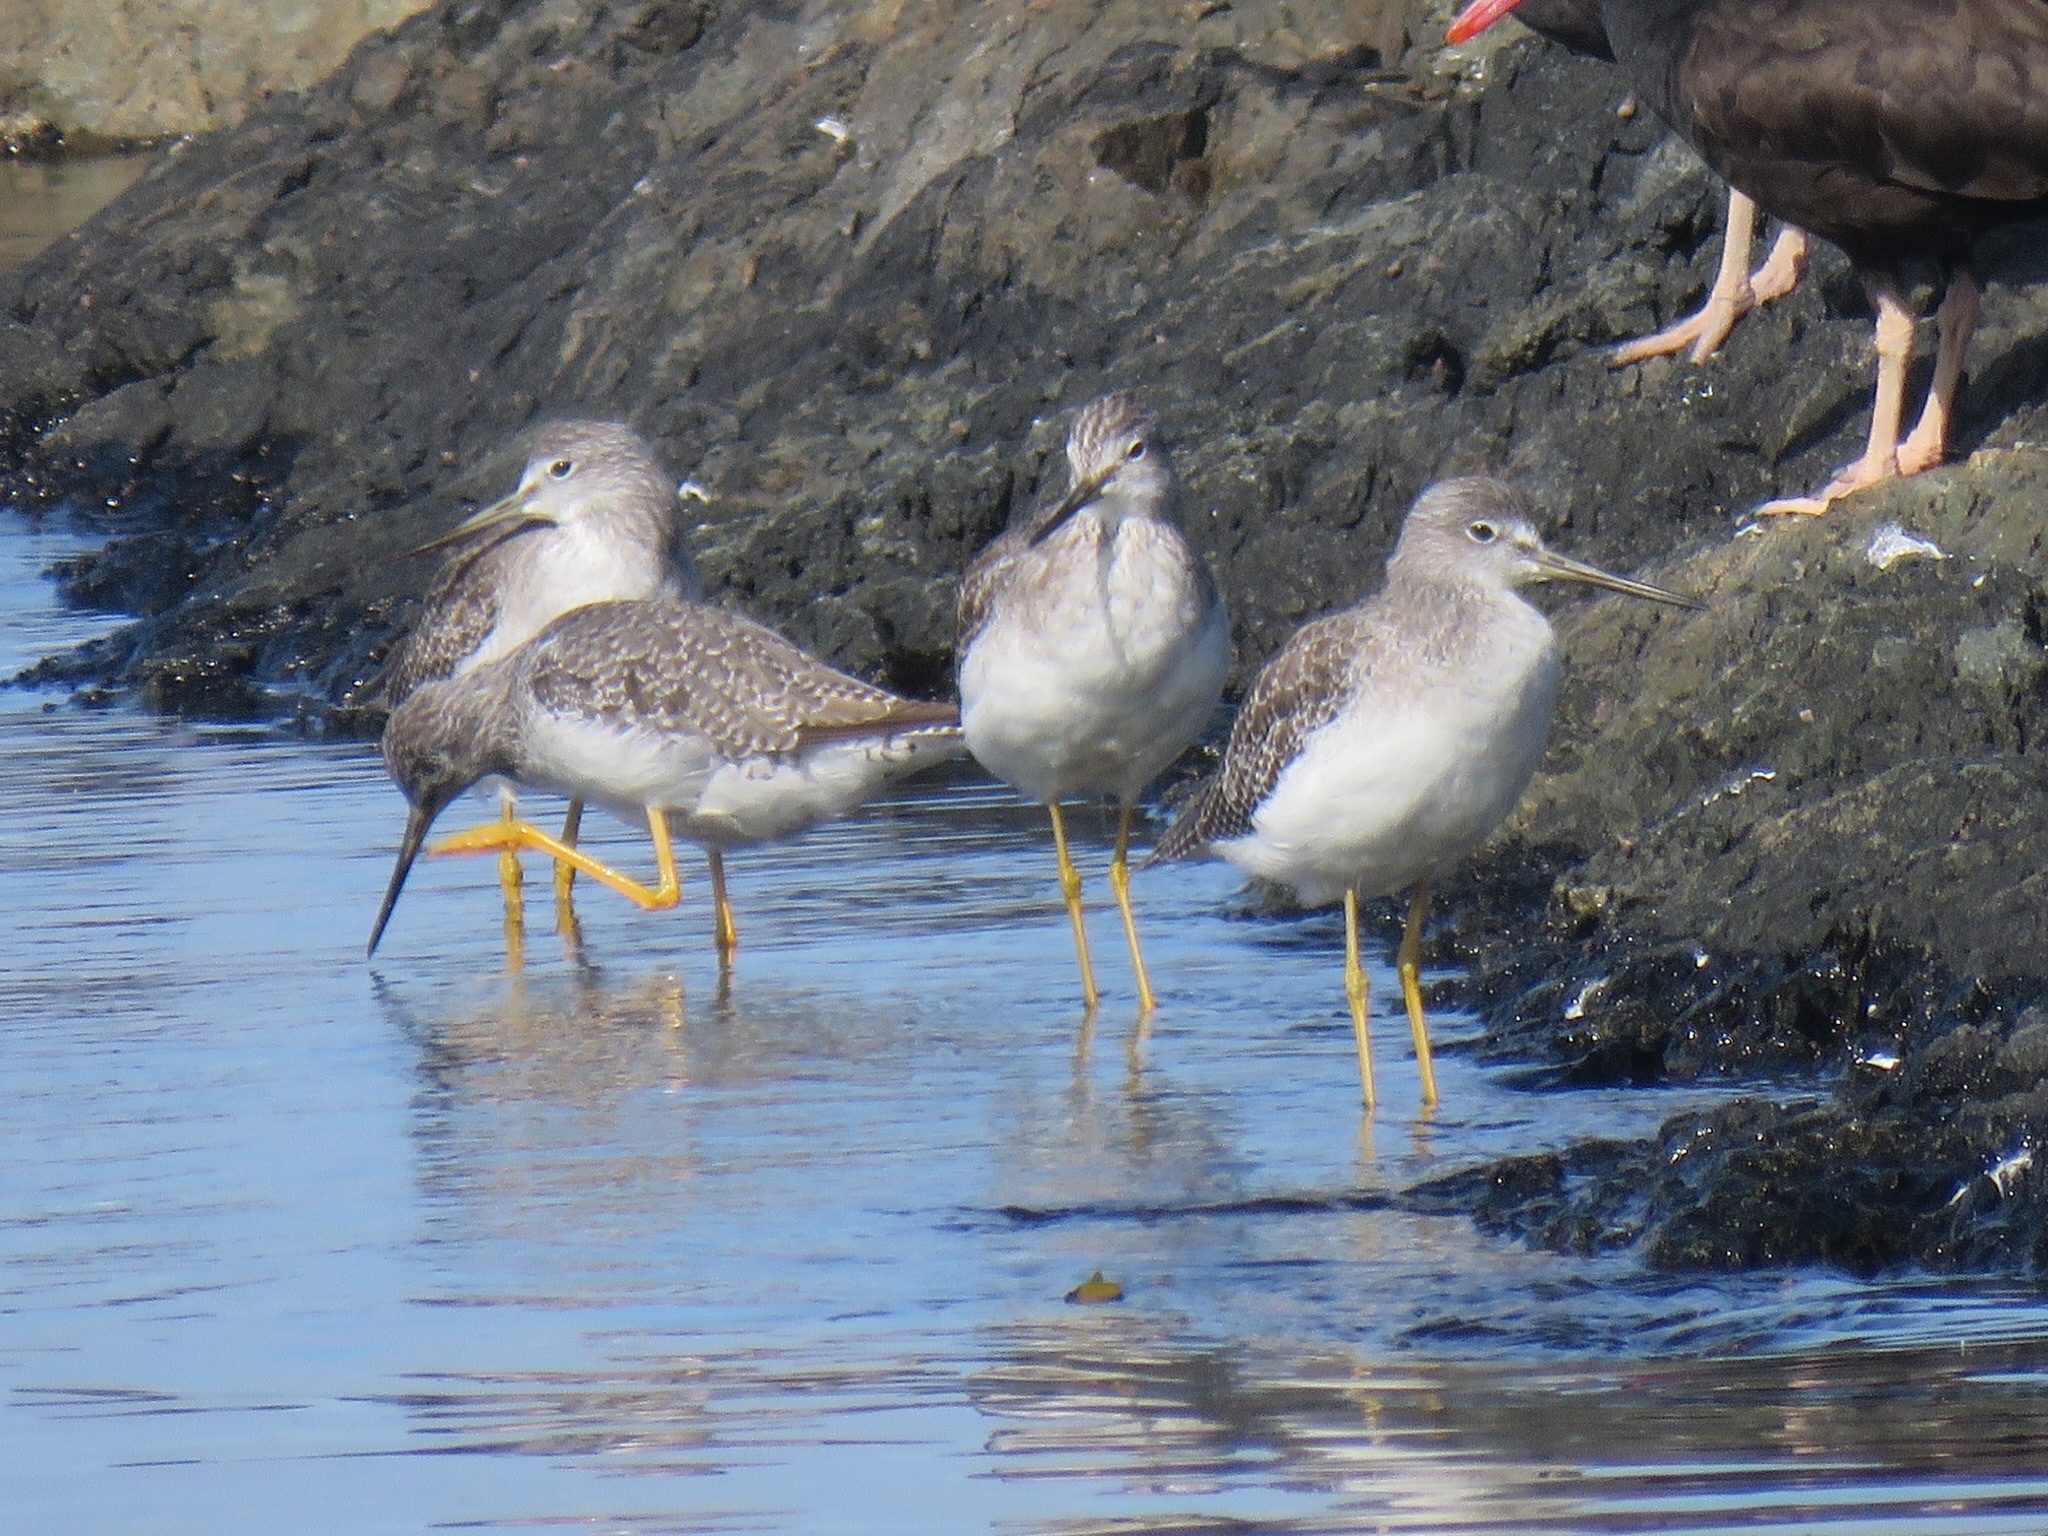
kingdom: Animalia
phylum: Chordata
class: Aves
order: Charadriiformes
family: Scolopacidae
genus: Tringa
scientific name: Tringa melanoleuca
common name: Greater yellowlegs
